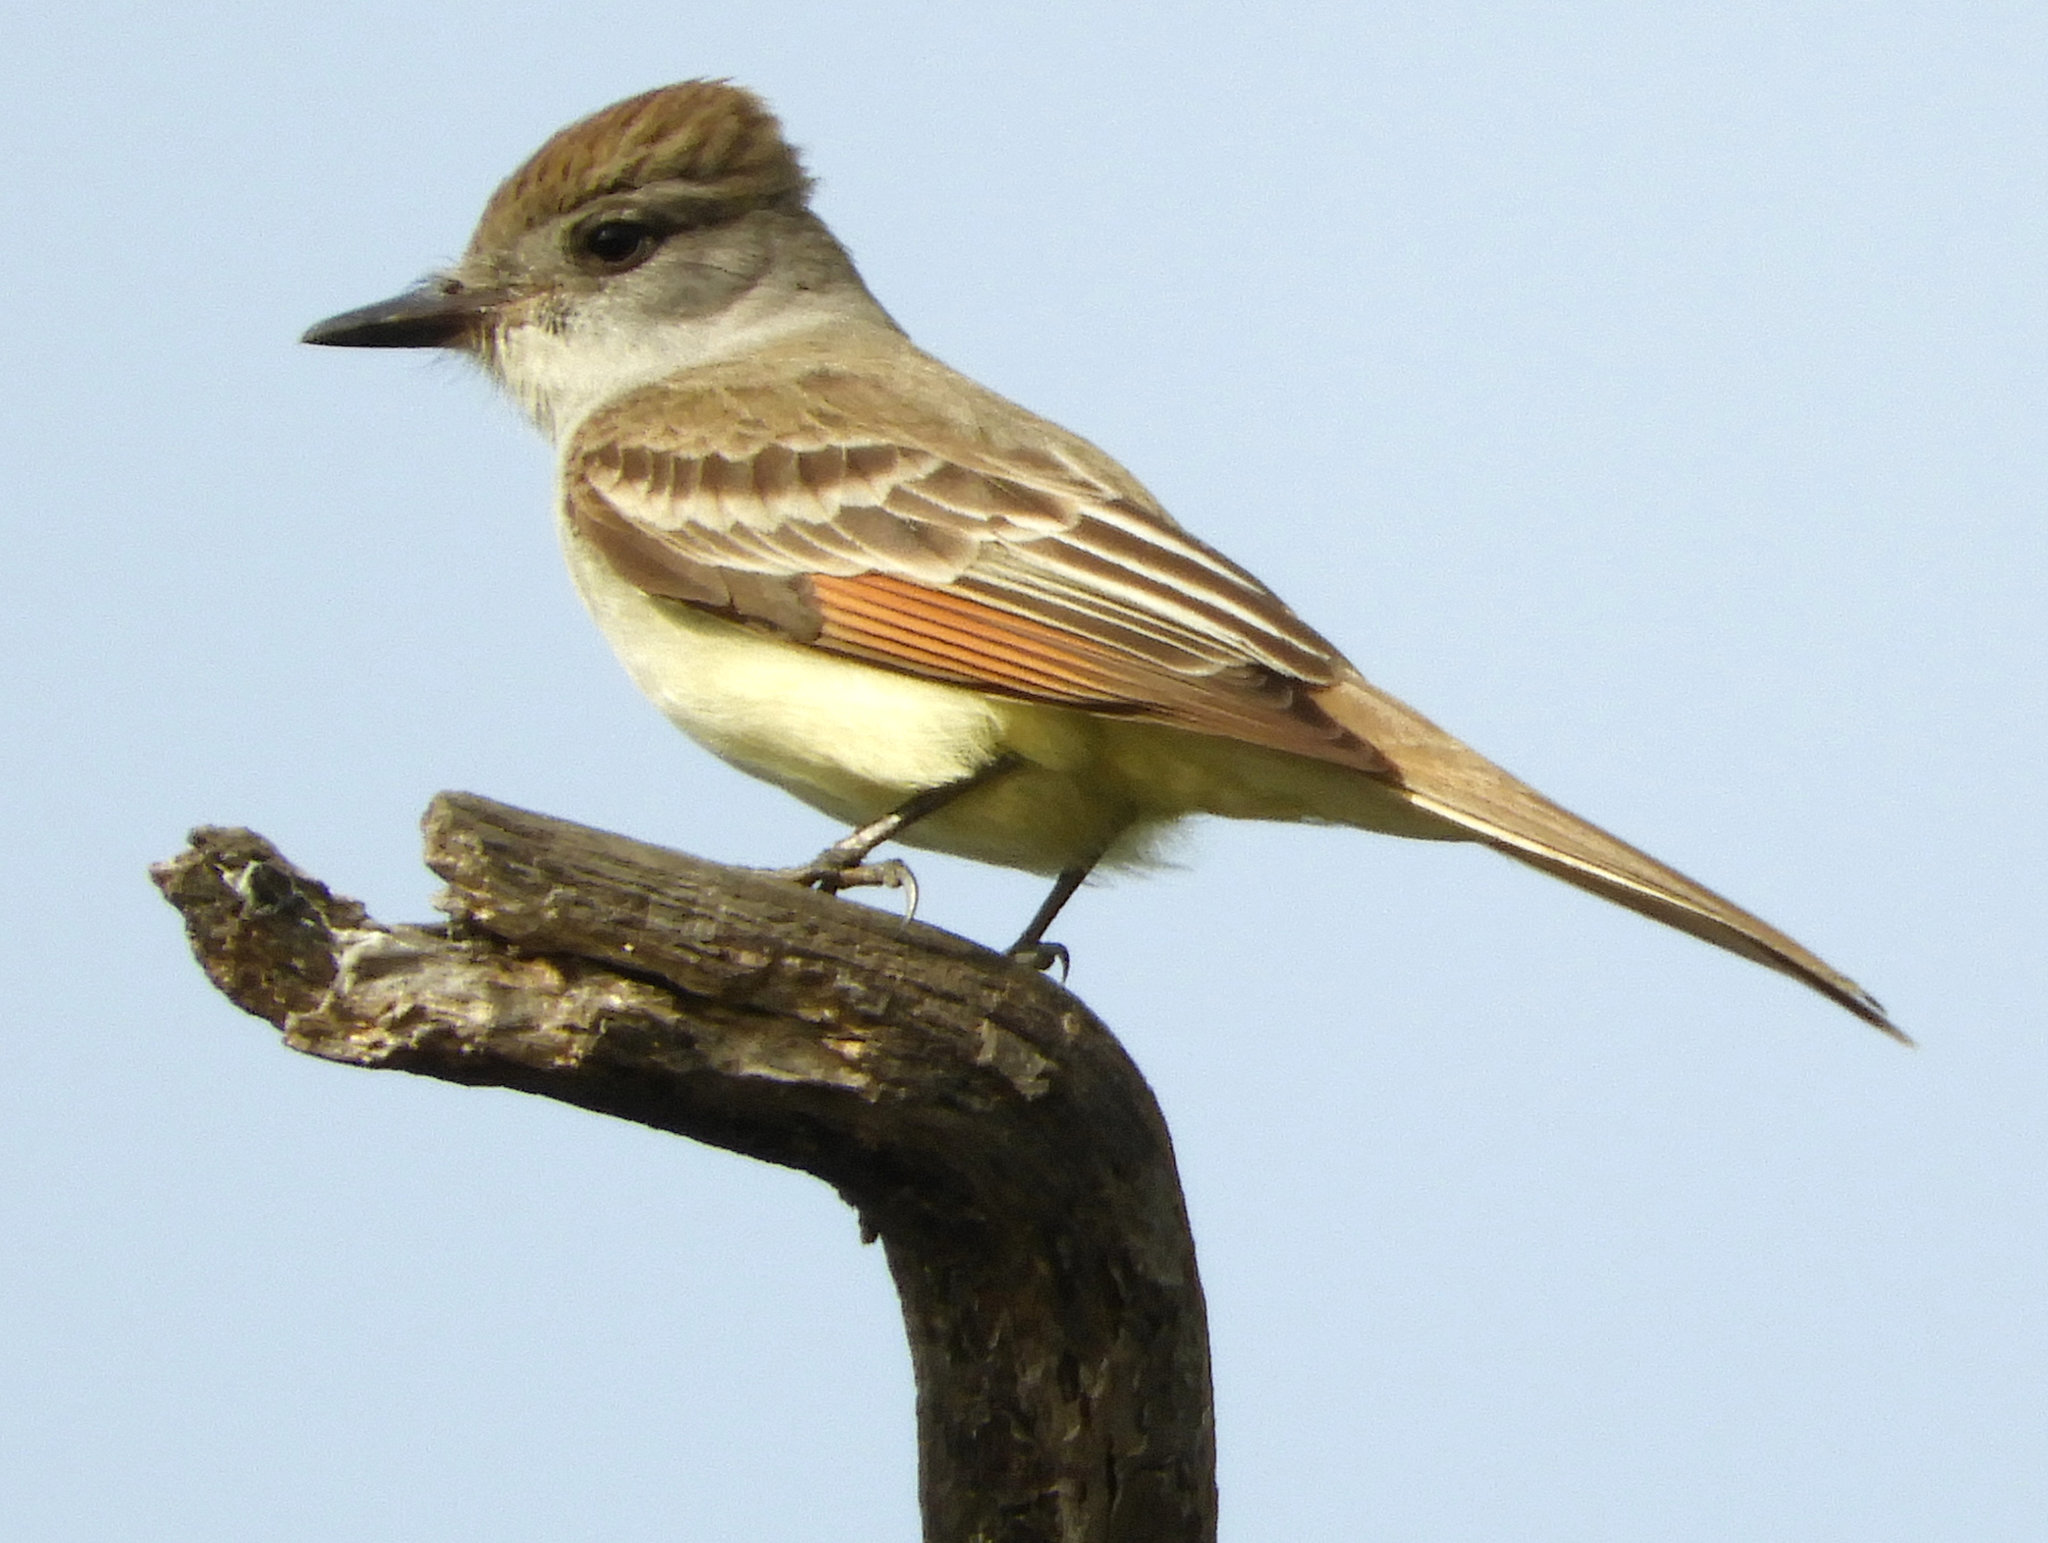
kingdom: Animalia
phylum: Chordata
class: Aves
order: Passeriformes
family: Tyrannidae
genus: Myiarchus
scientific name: Myiarchus cinerascens
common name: Ash-throated flycatcher
